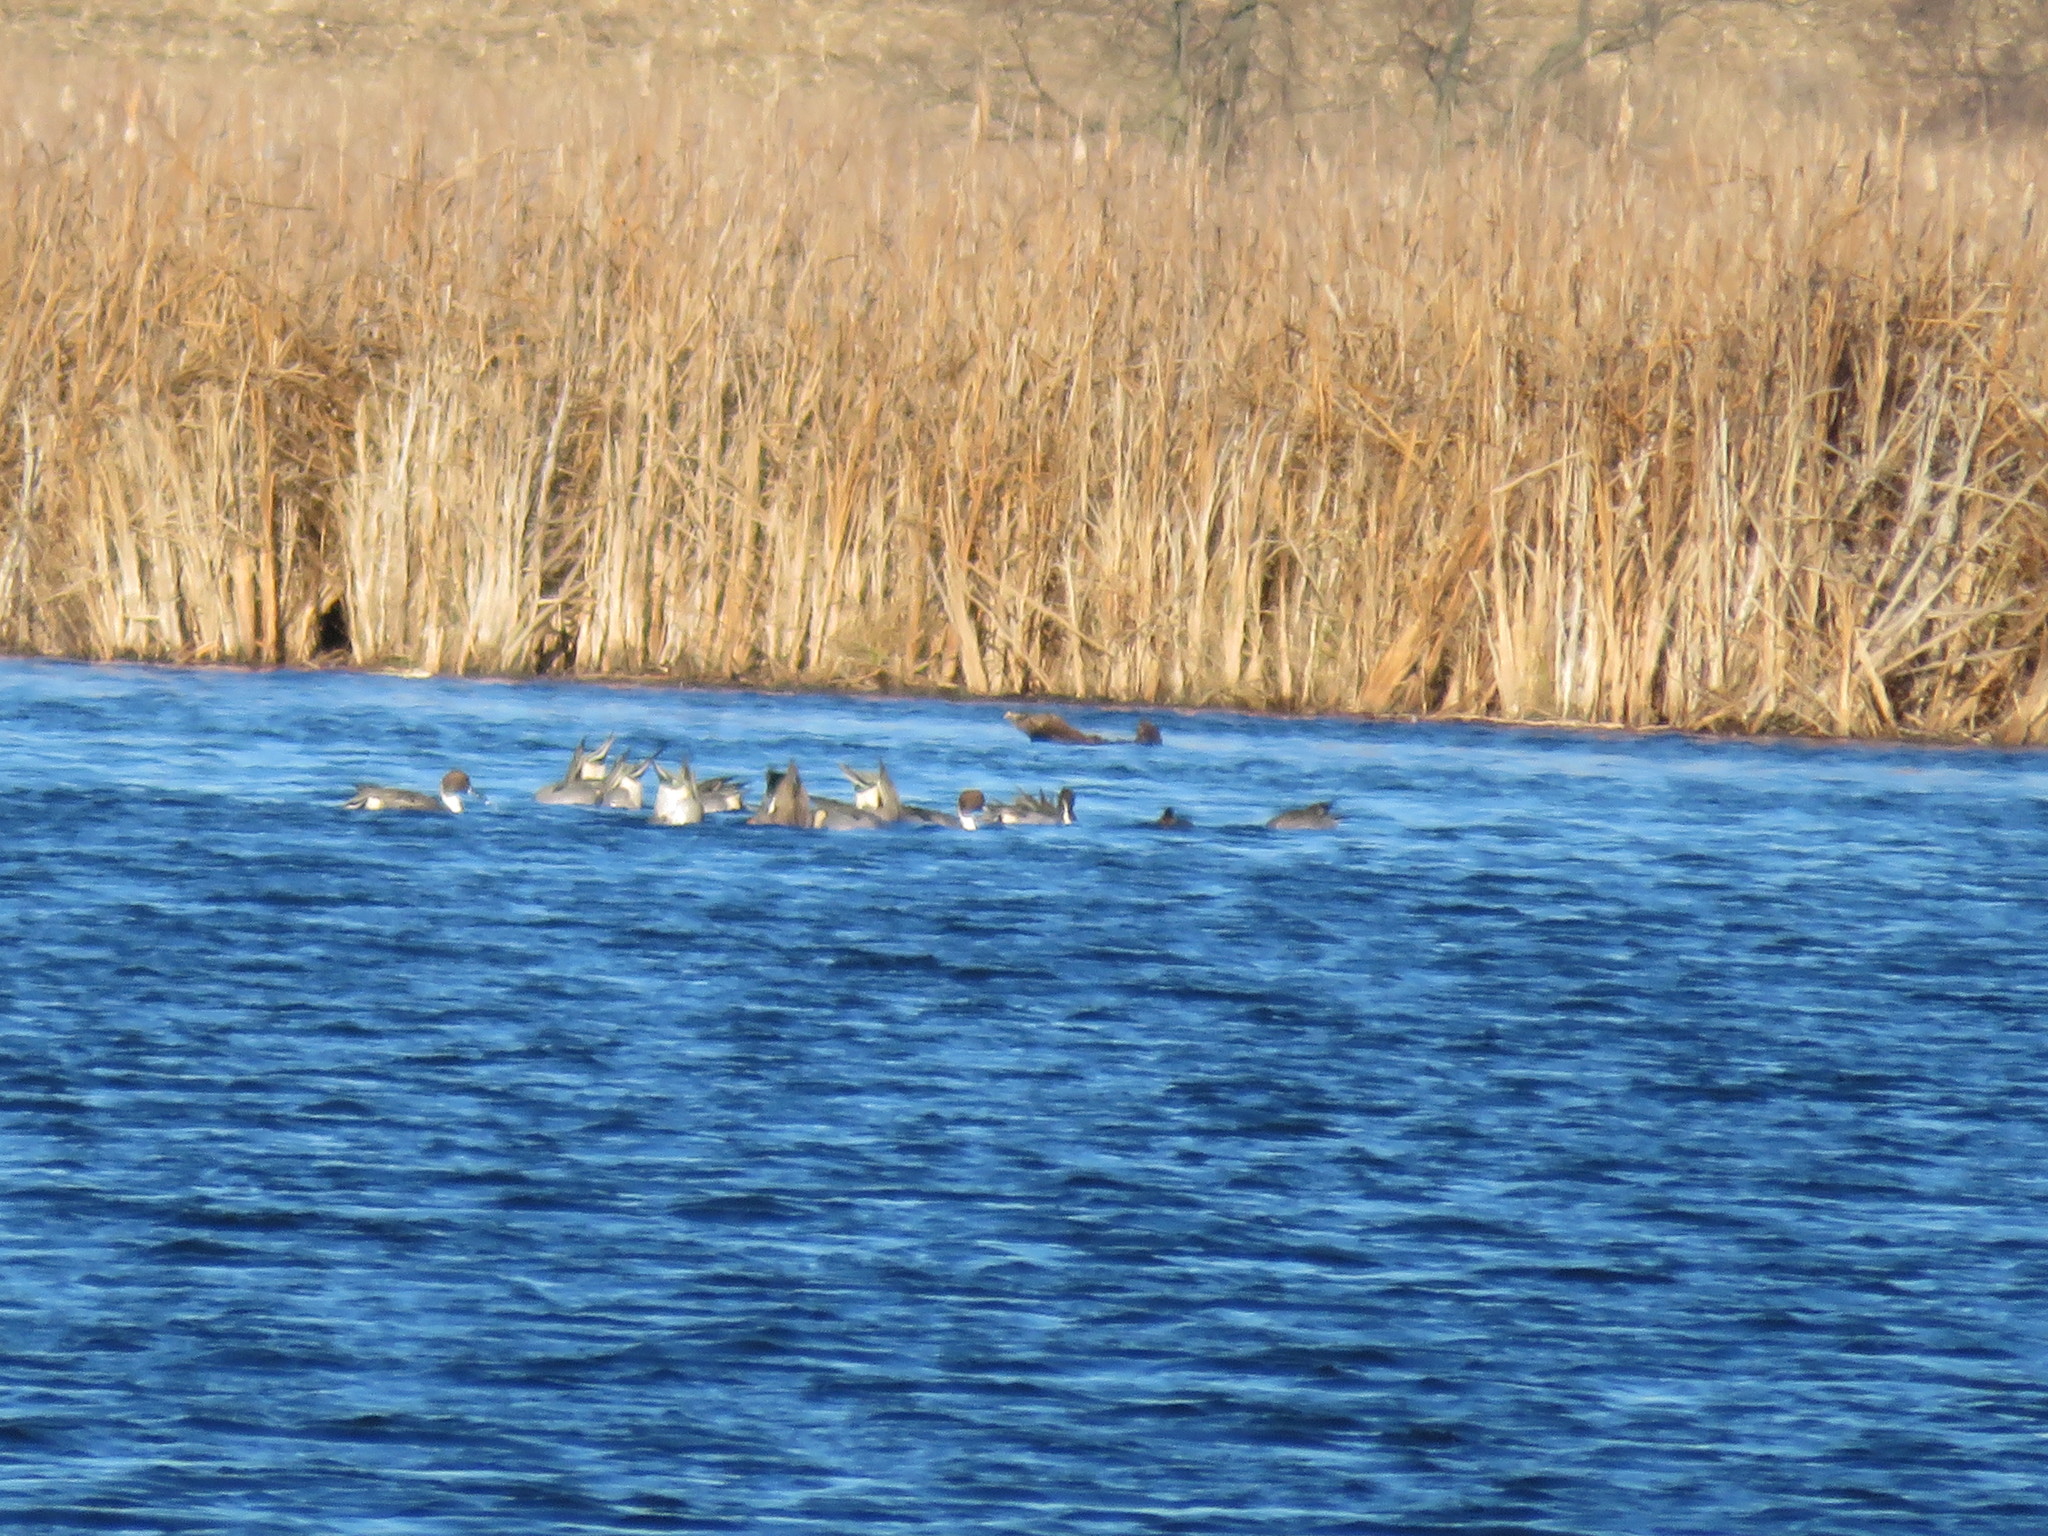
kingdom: Animalia
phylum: Chordata
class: Aves
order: Anseriformes
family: Anatidae
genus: Anas
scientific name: Anas acuta
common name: Northern pintail
